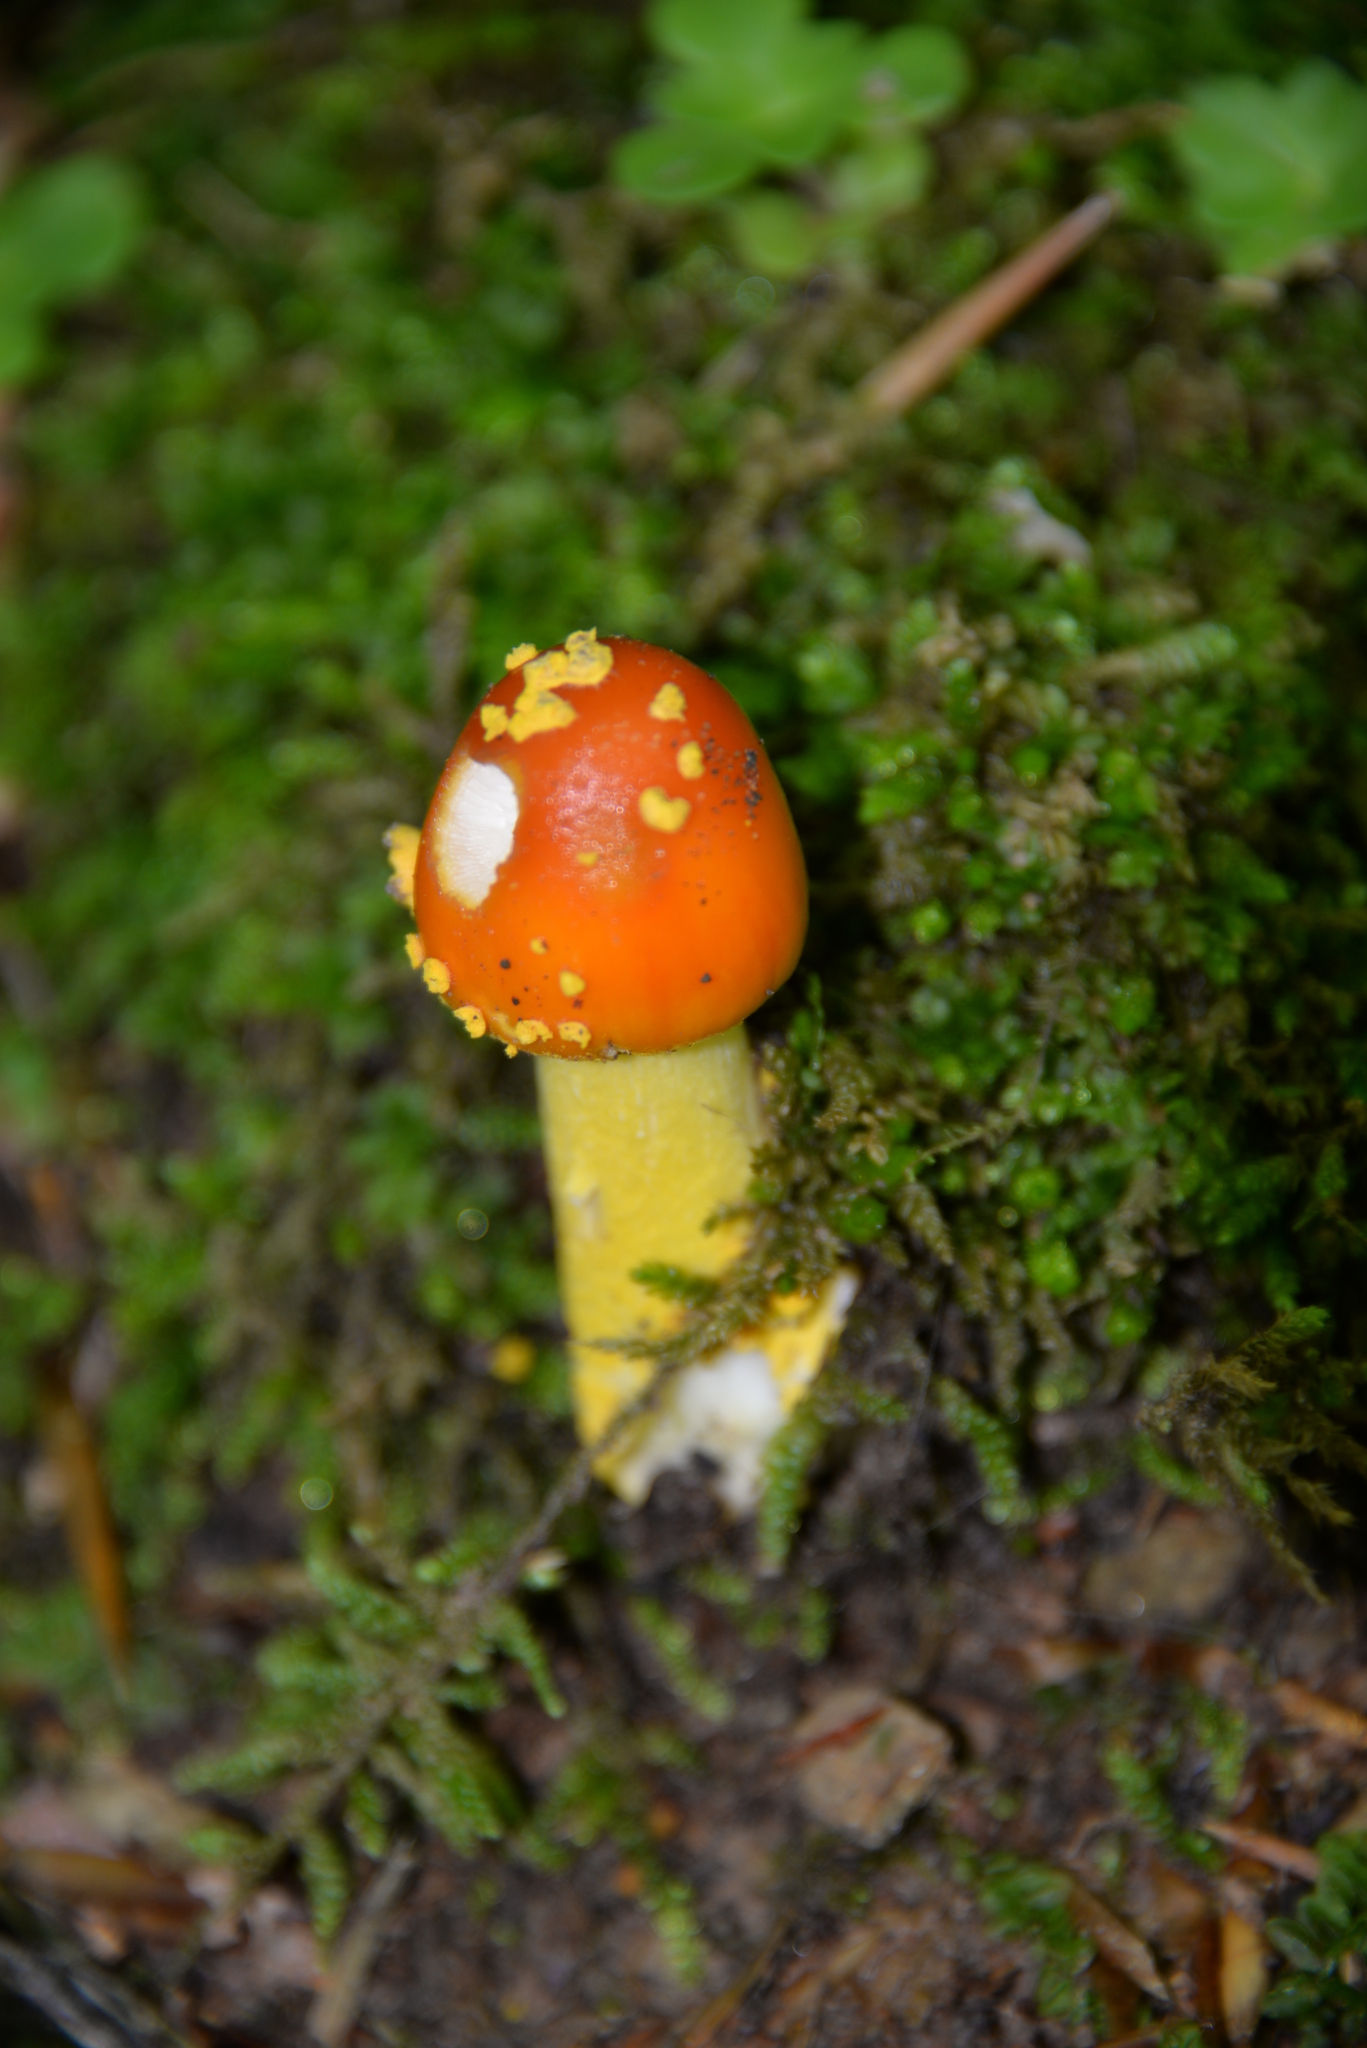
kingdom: Fungi
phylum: Basidiomycota
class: Agaricomycetes
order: Agaricales
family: Amanitaceae
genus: Amanita
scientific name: Amanita flavoconia
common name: Yellow patches
